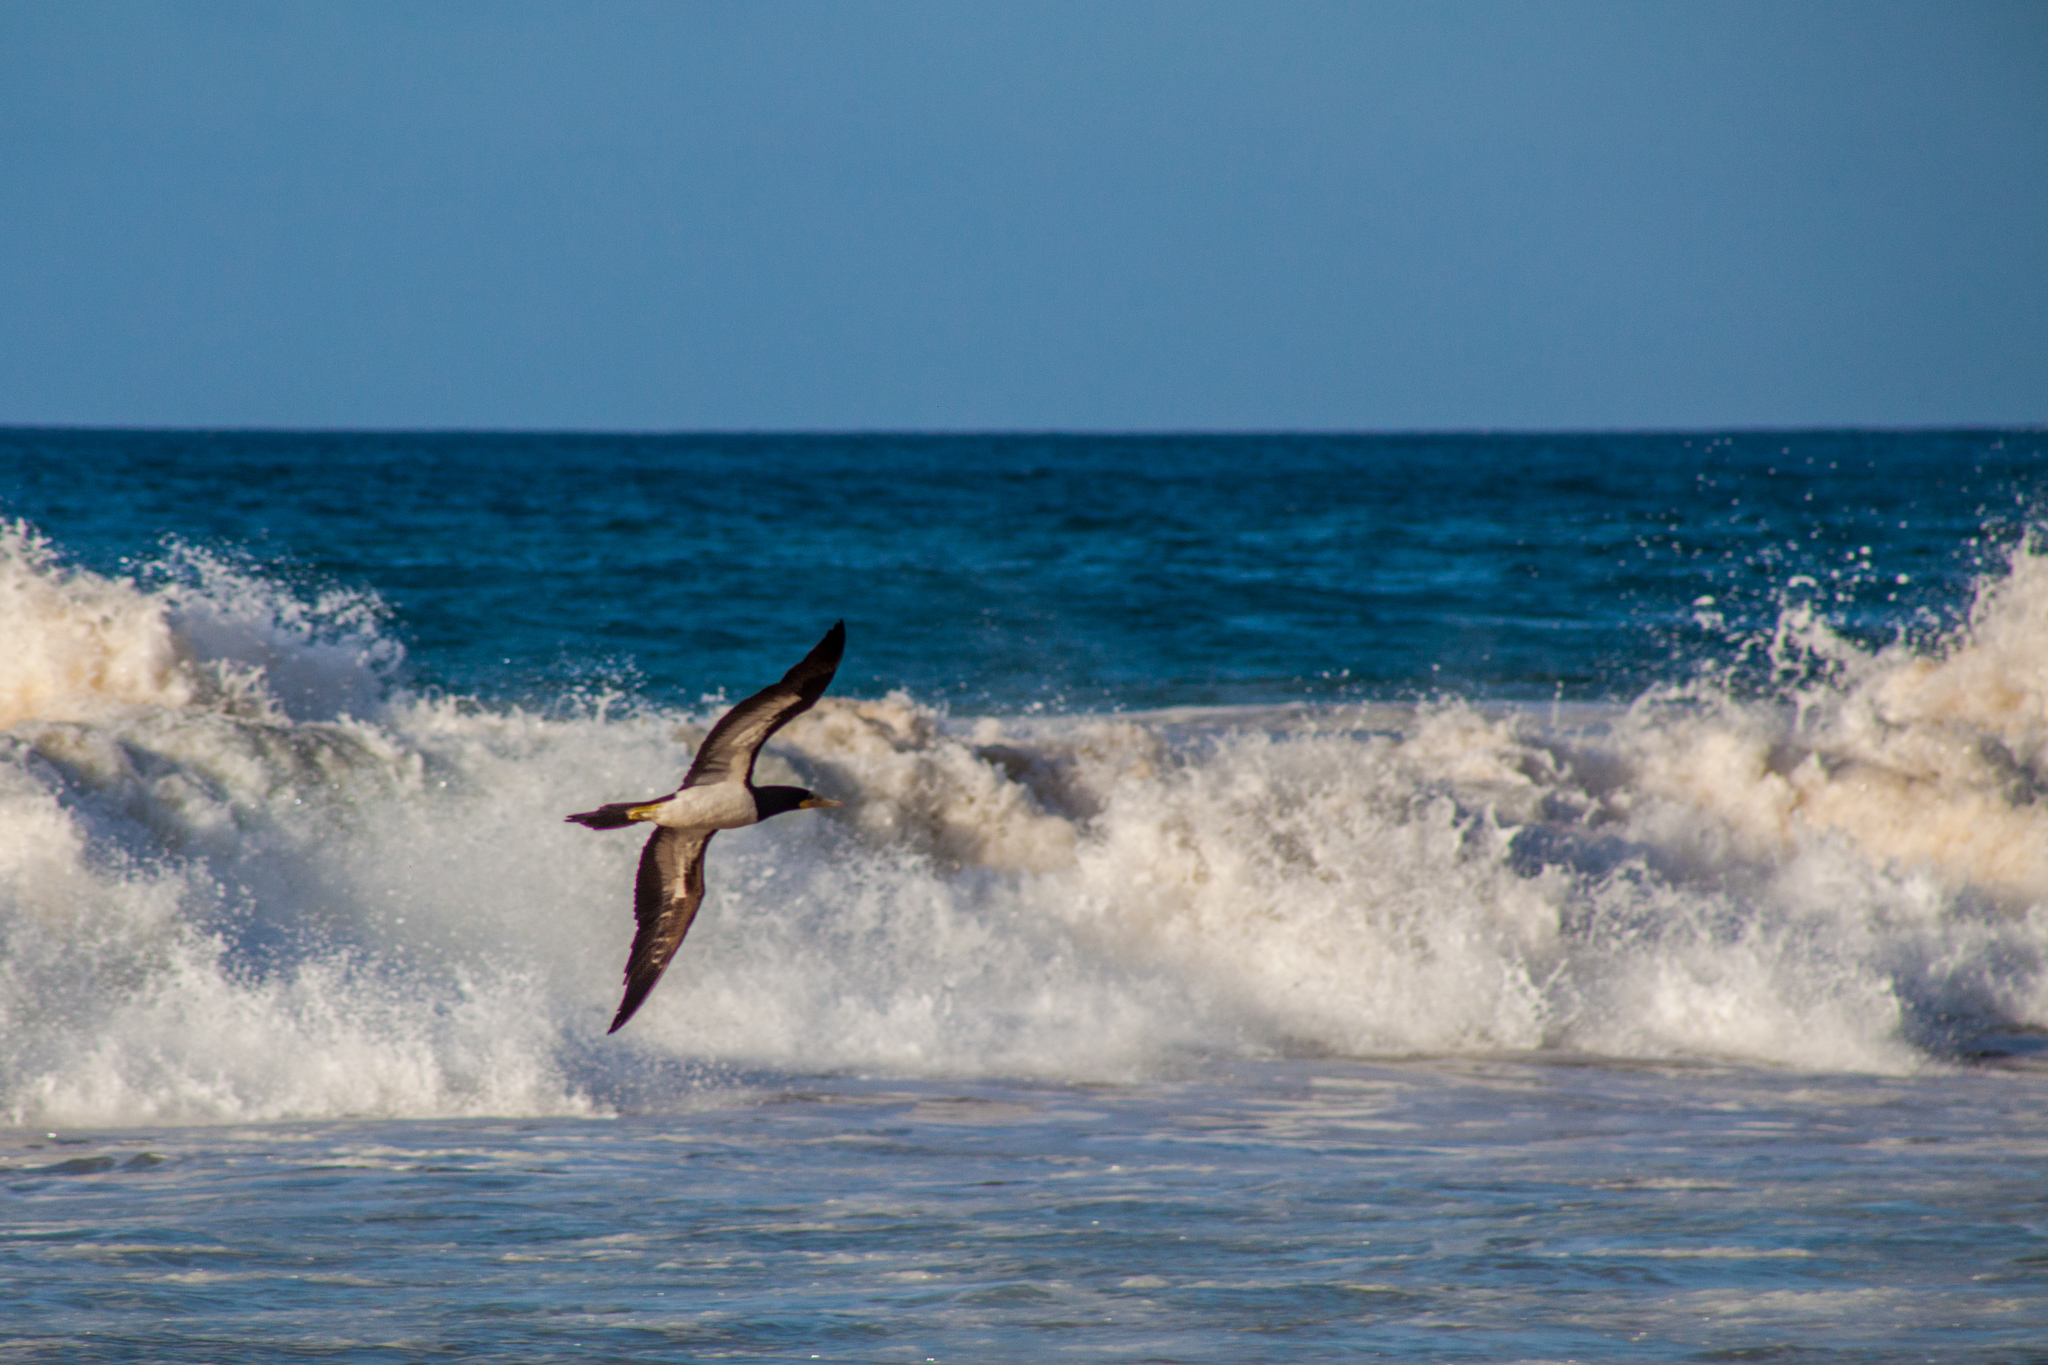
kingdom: Animalia
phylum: Chordata
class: Aves
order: Suliformes
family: Sulidae
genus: Sula
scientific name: Sula leucogaster
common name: Brown booby
